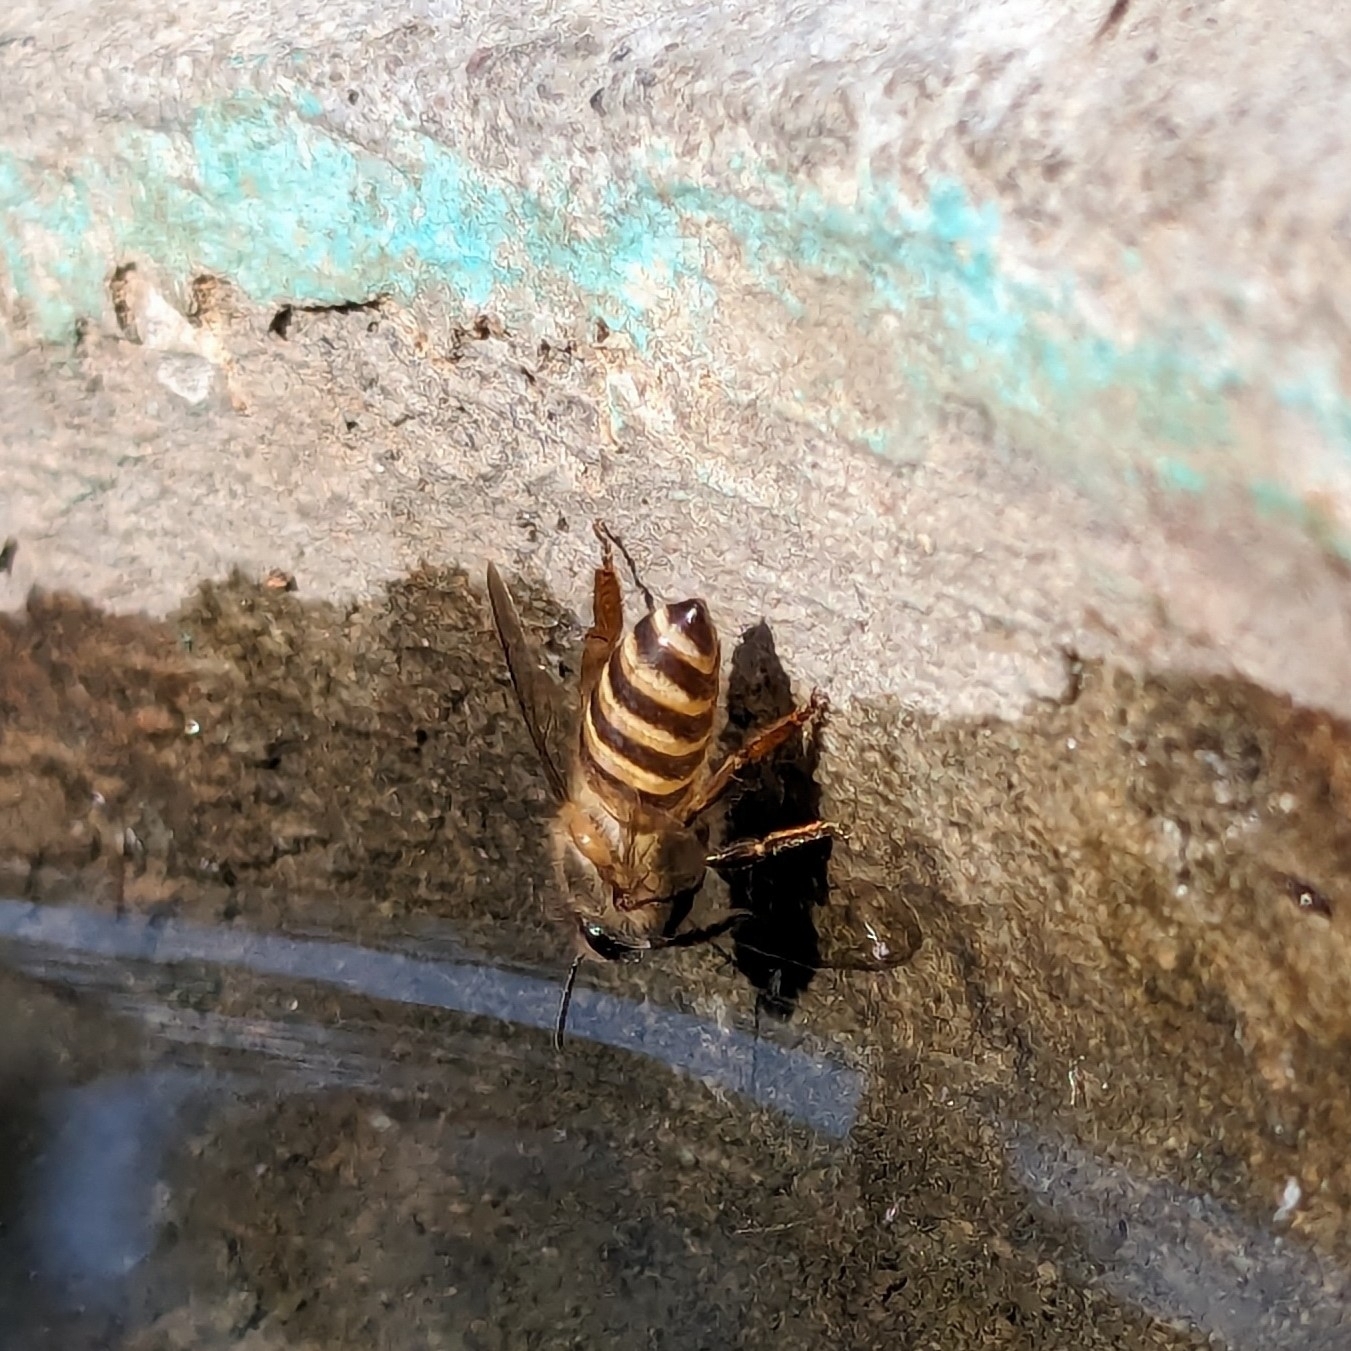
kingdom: Animalia
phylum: Arthropoda
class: Insecta
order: Hymenoptera
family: Apidae
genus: Apis
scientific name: Apis cerana
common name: Honey bee
